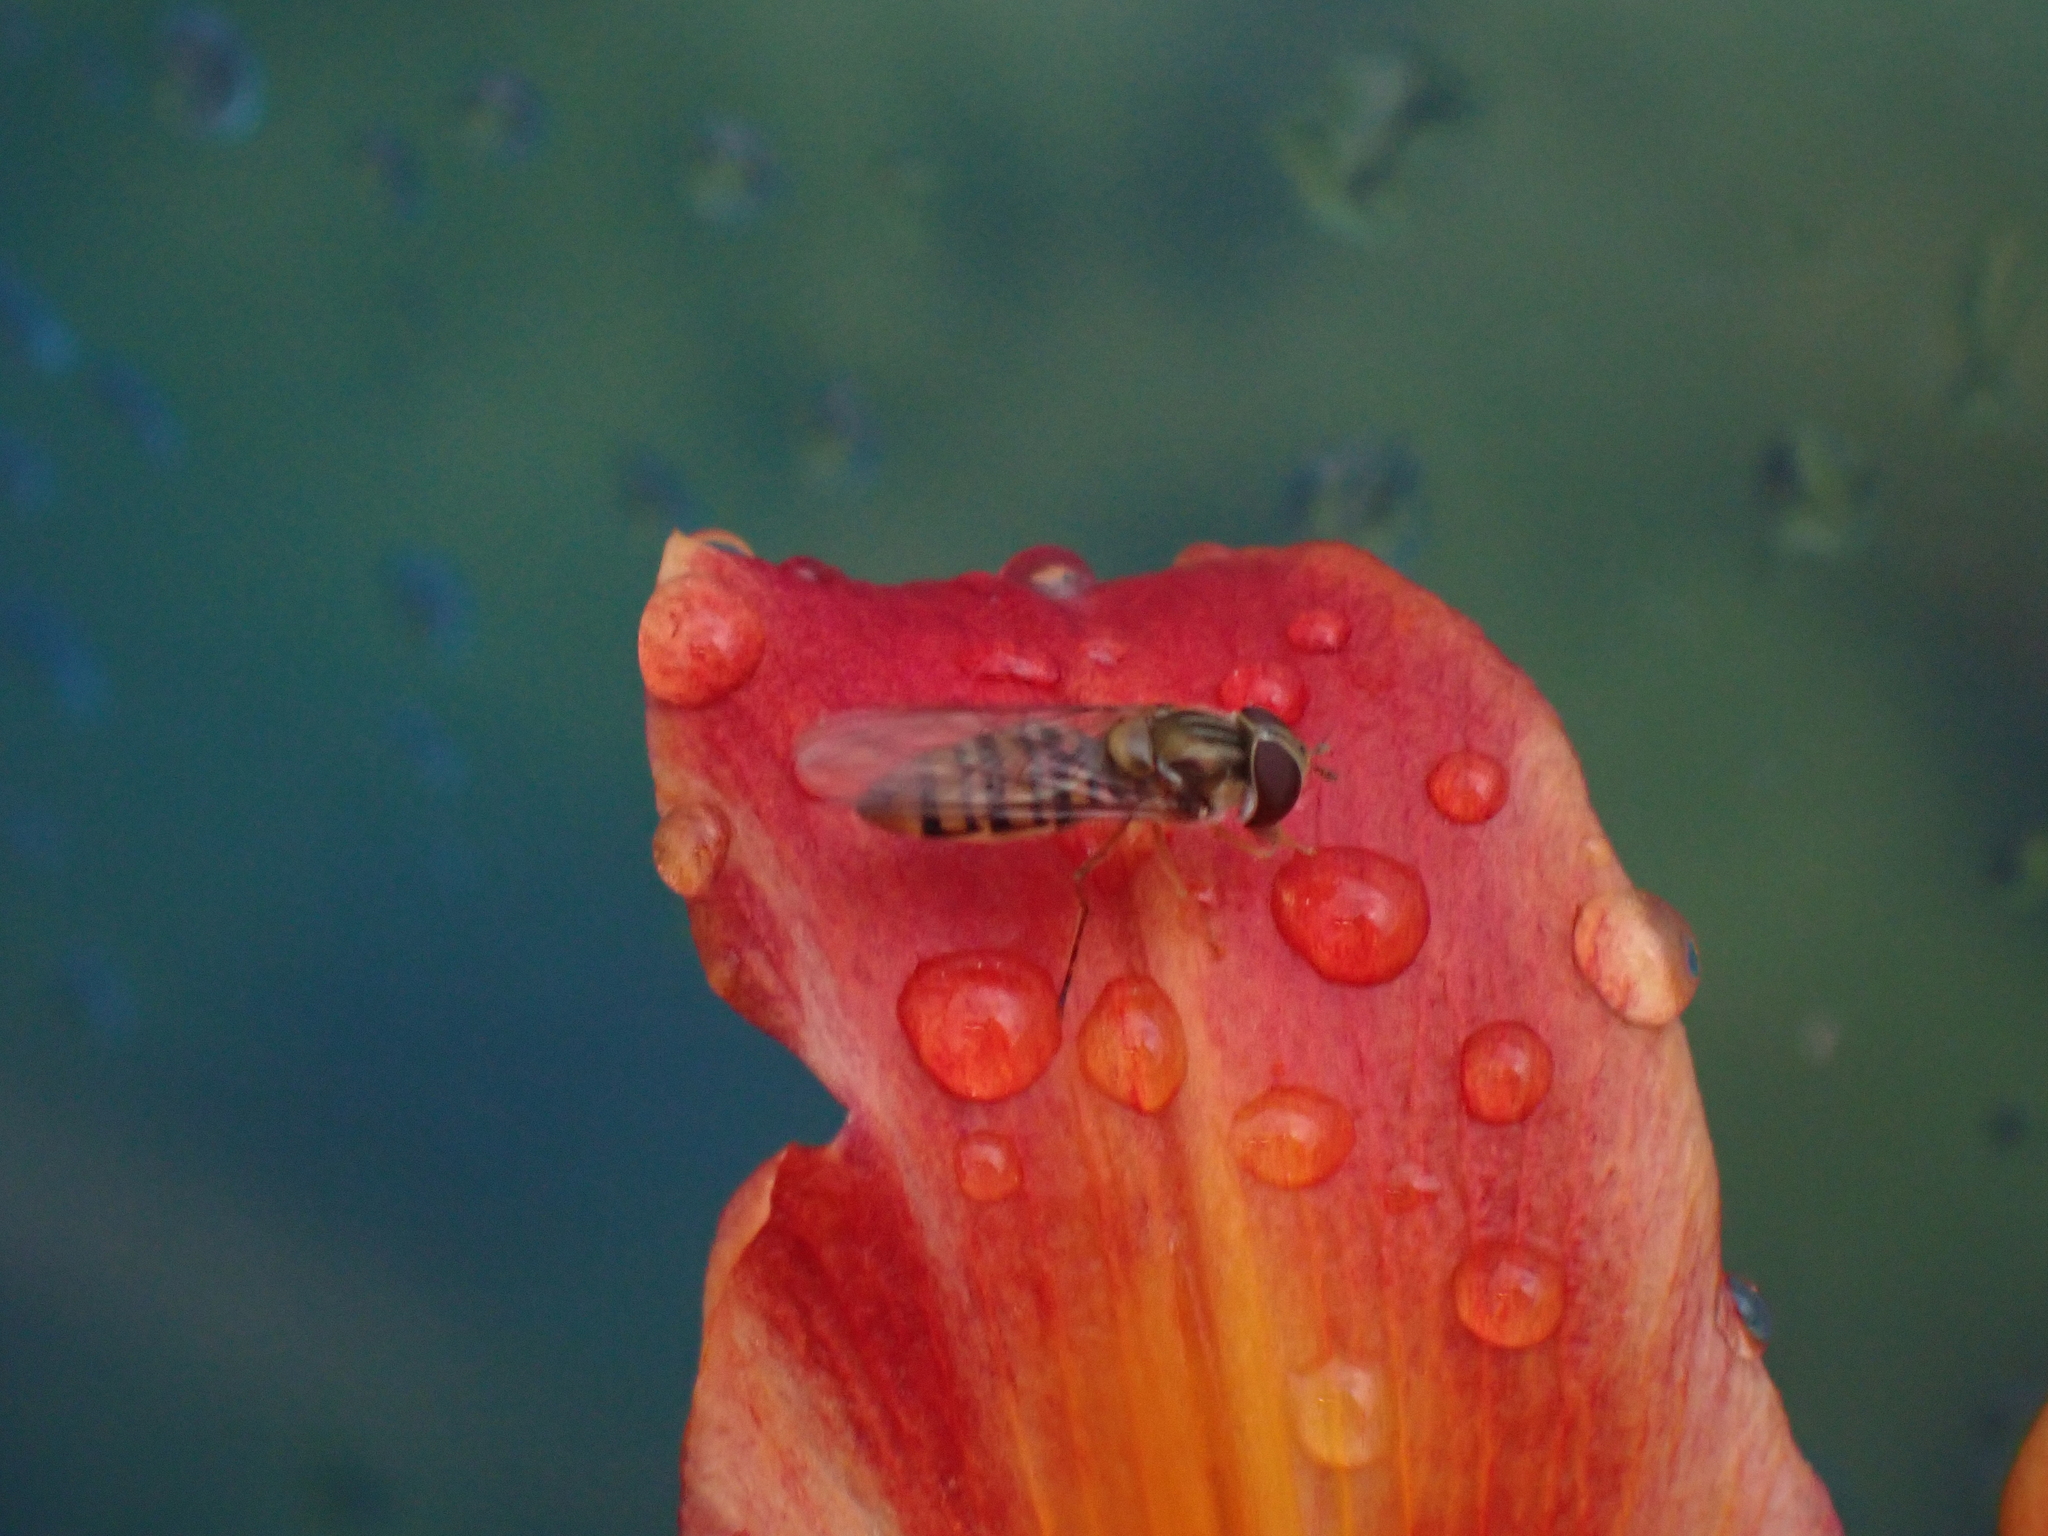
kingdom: Animalia
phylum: Arthropoda
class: Insecta
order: Diptera
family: Syrphidae
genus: Episyrphus
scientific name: Episyrphus balteatus
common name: Marmalade hoverfly
